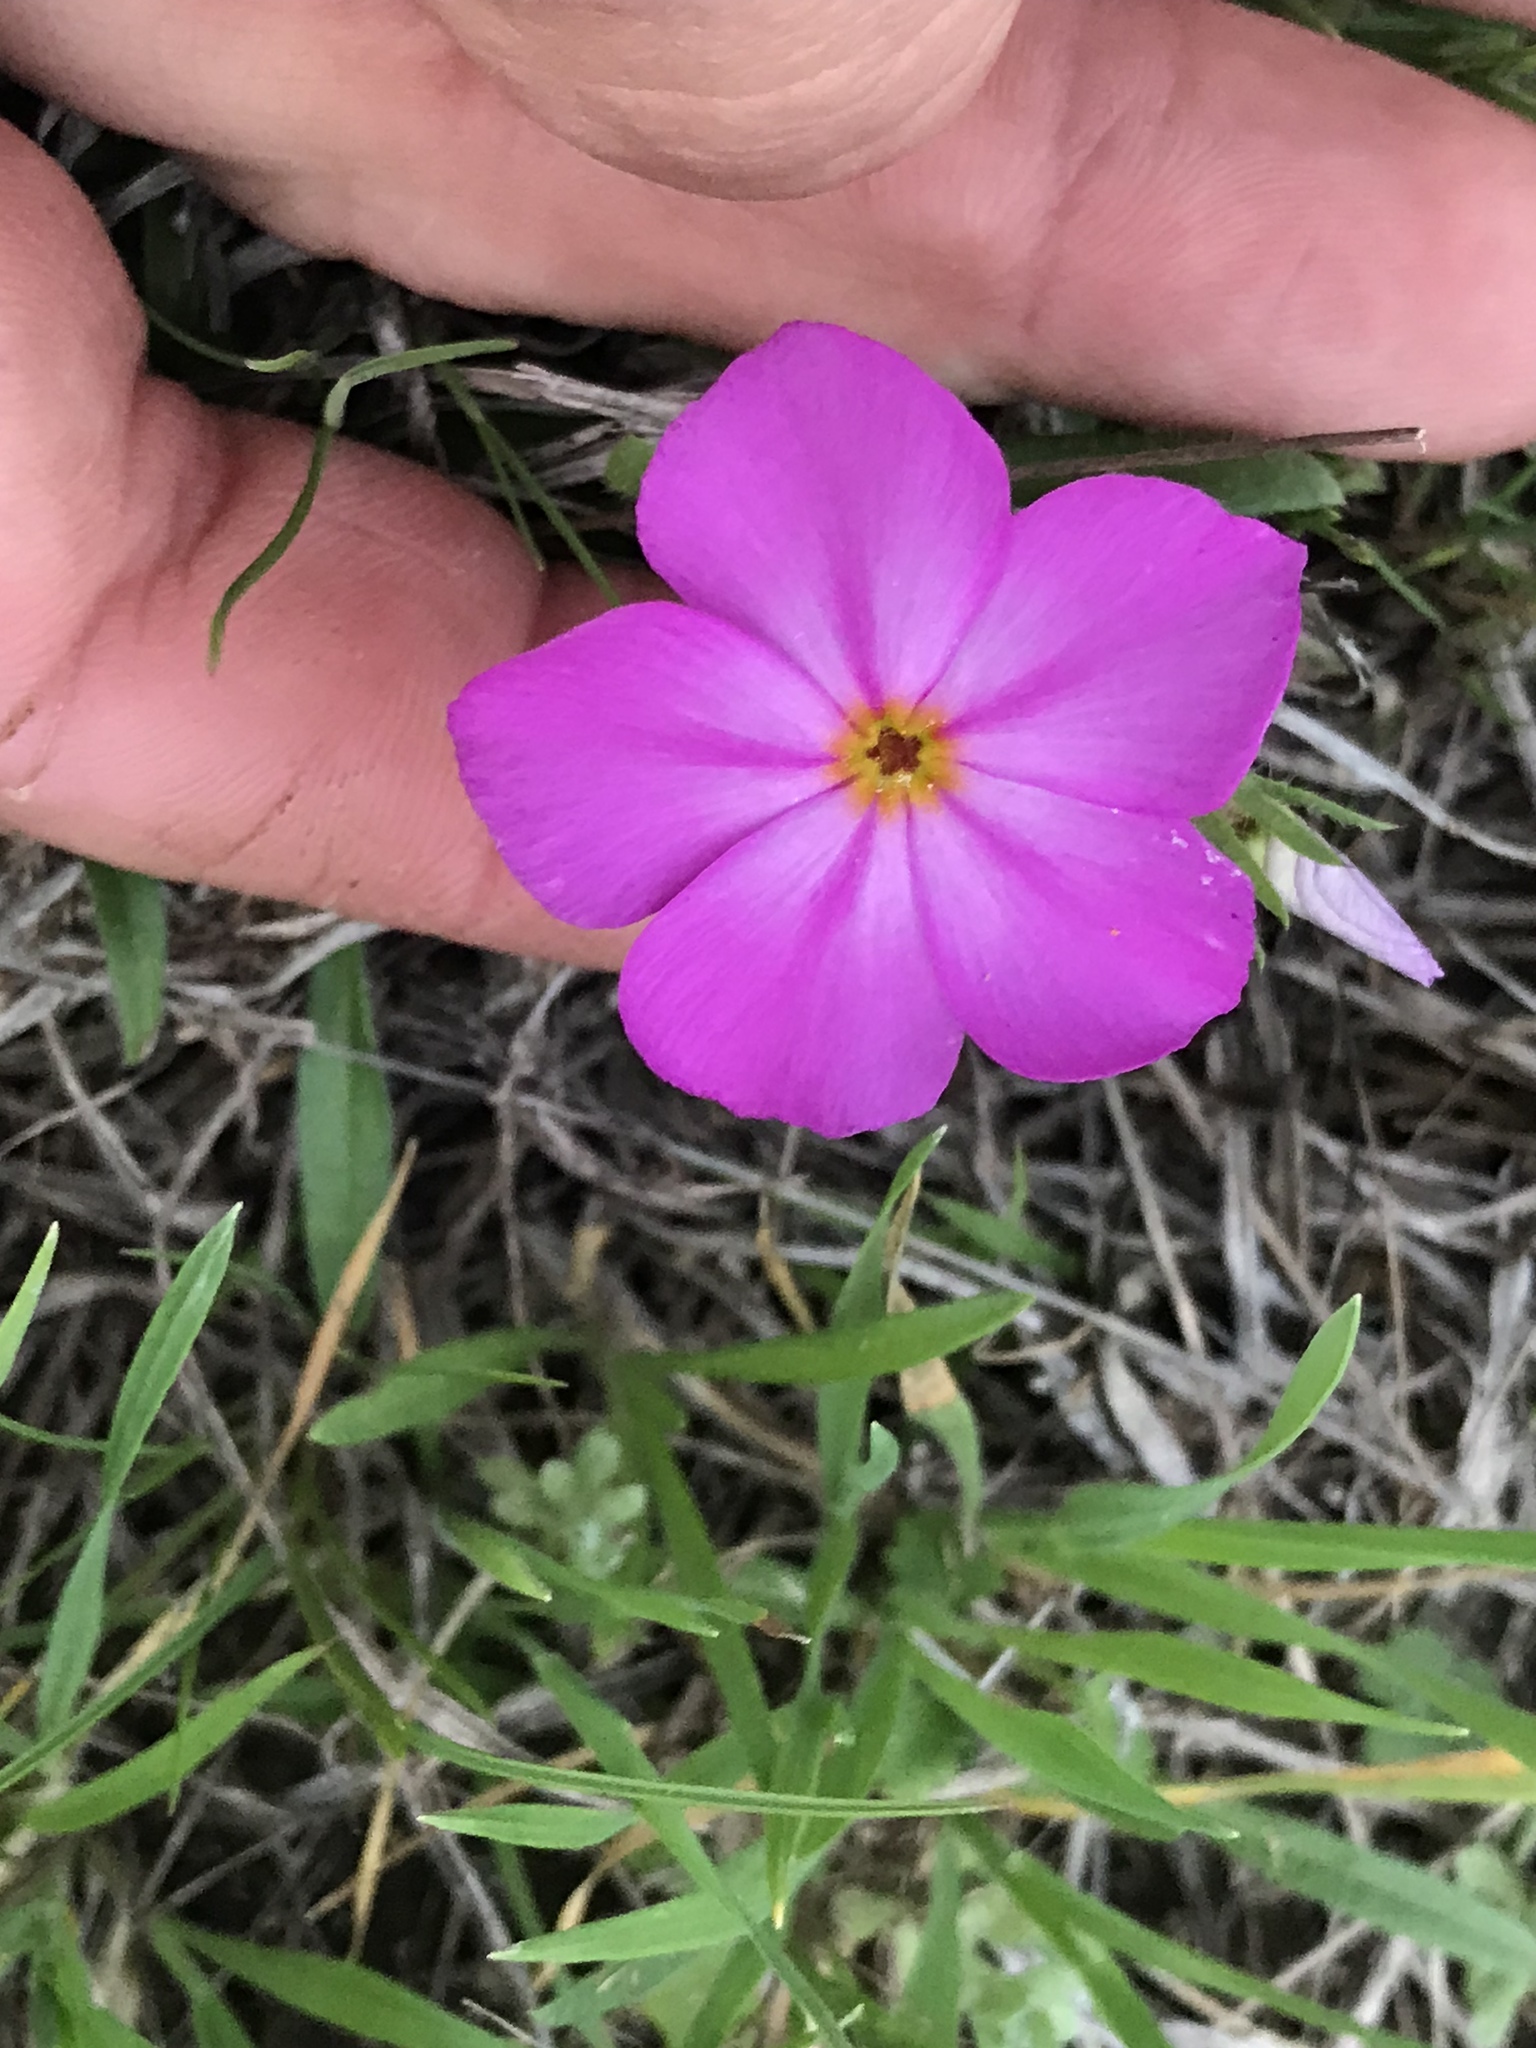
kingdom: Plantae
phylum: Tracheophyta
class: Magnoliopsida
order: Ericales
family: Polemoniaceae
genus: Phlox
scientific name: Phlox roemeriana
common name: Roemer's phlox
